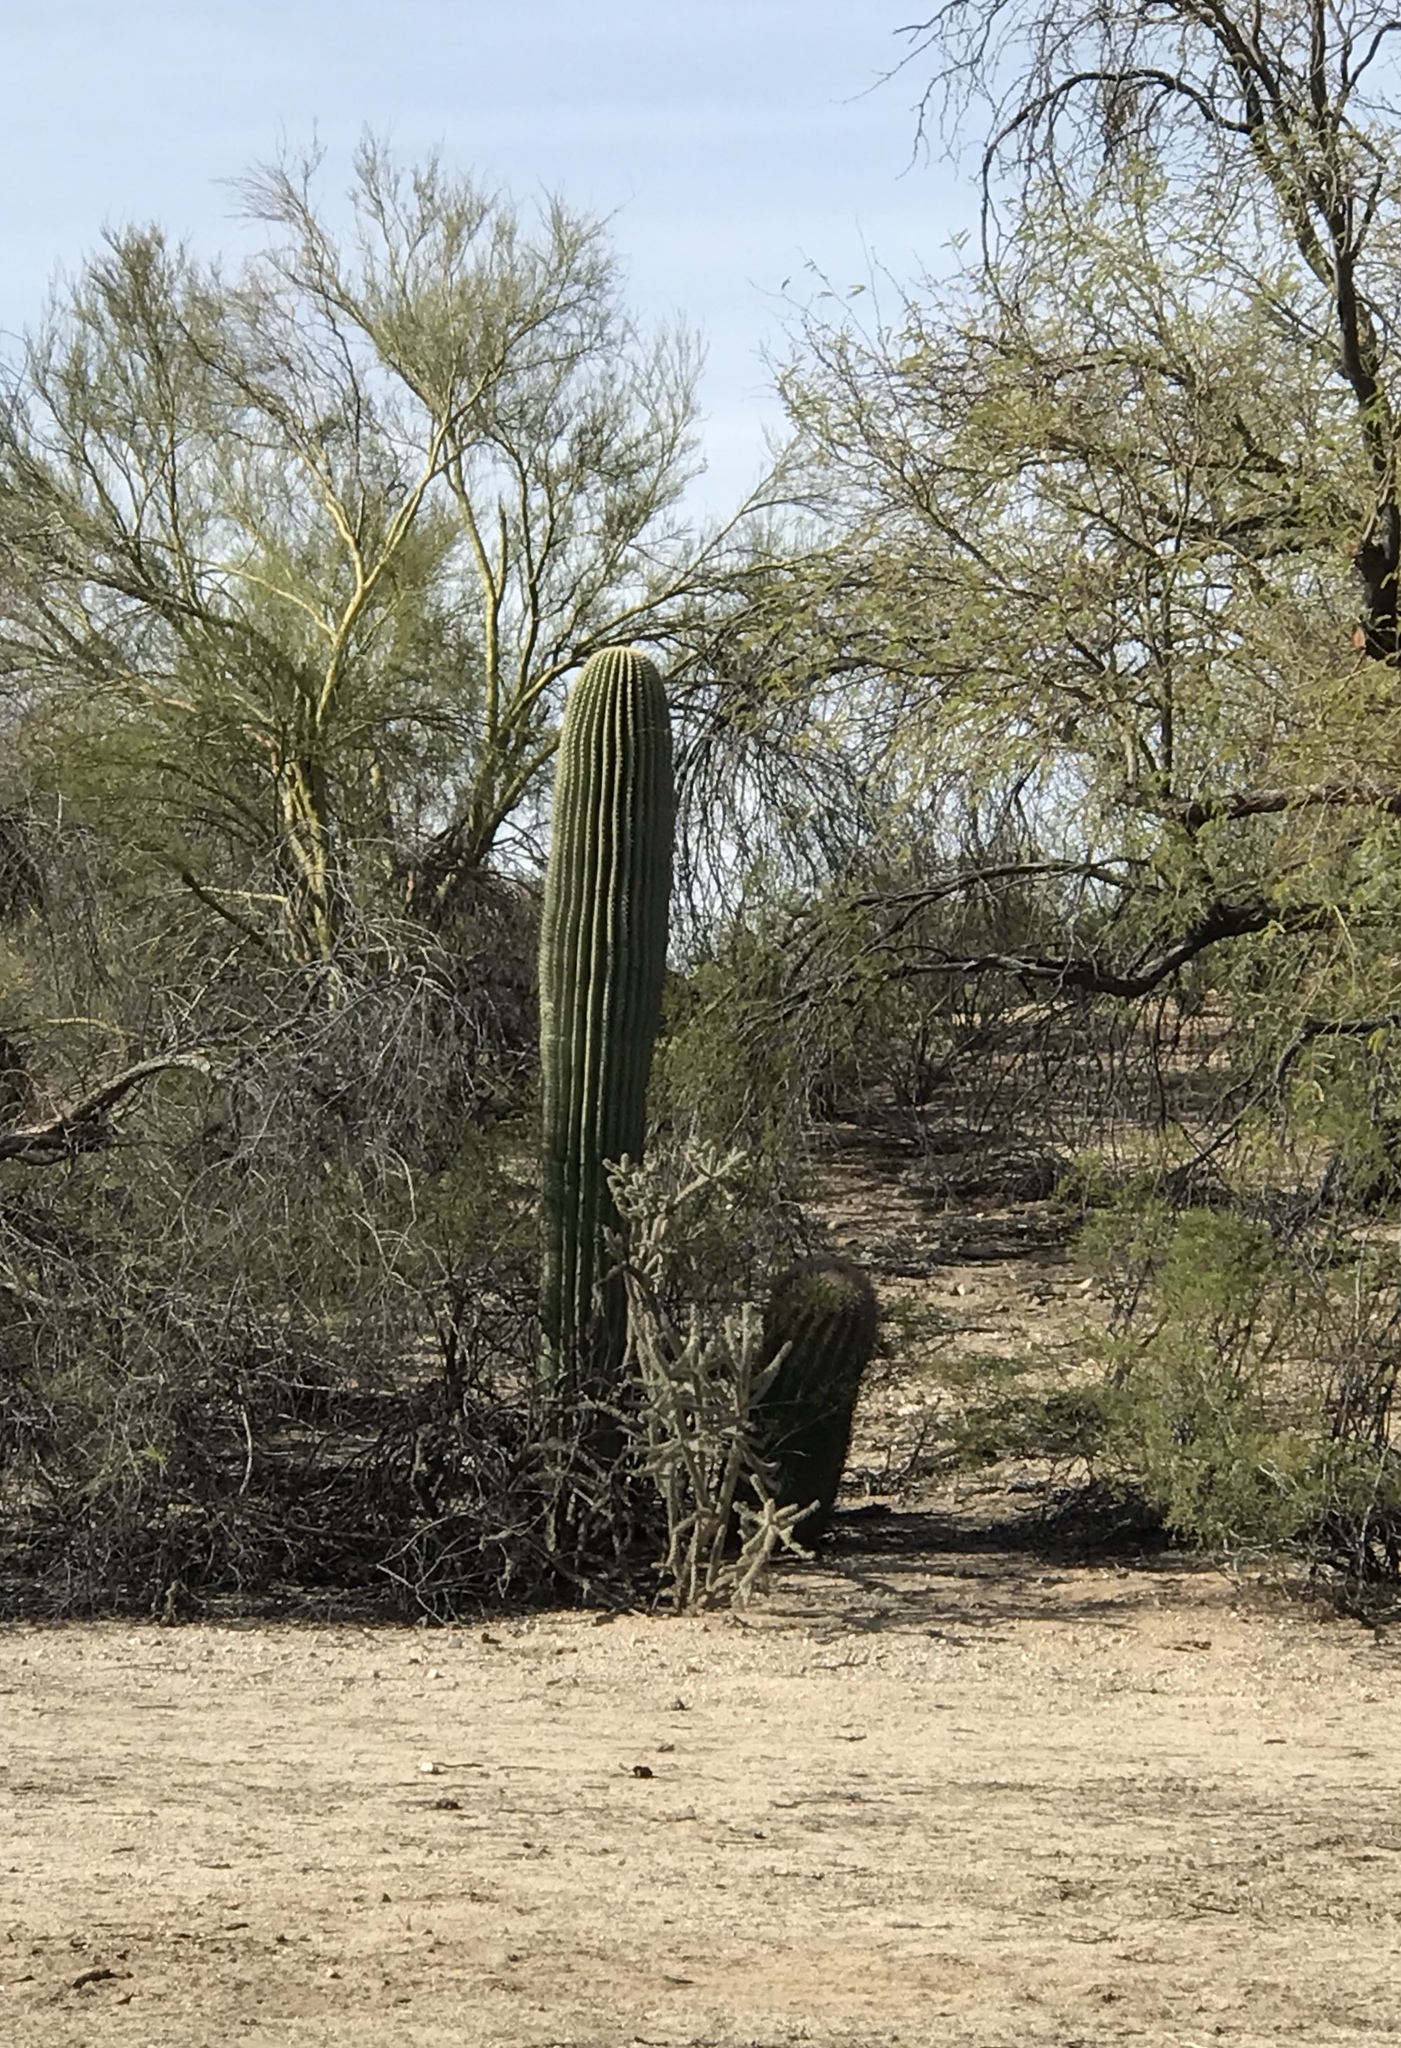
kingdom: Plantae
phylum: Tracheophyta
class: Magnoliopsida
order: Caryophyllales
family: Cactaceae
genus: Carnegiea
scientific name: Carnegiea gigantea
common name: Saguaro
